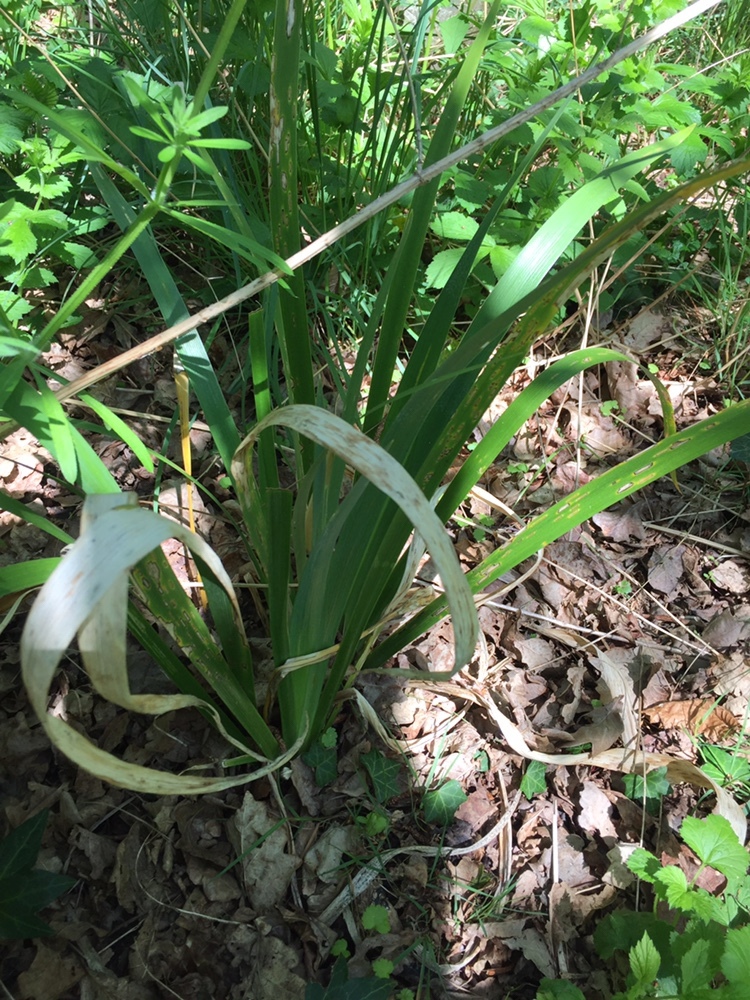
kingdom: Plantae
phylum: Tracheophyta
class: Liliopsida
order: Asparagales
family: Iridaceae
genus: Iris
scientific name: Iris foetidissima
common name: Stinking iris
